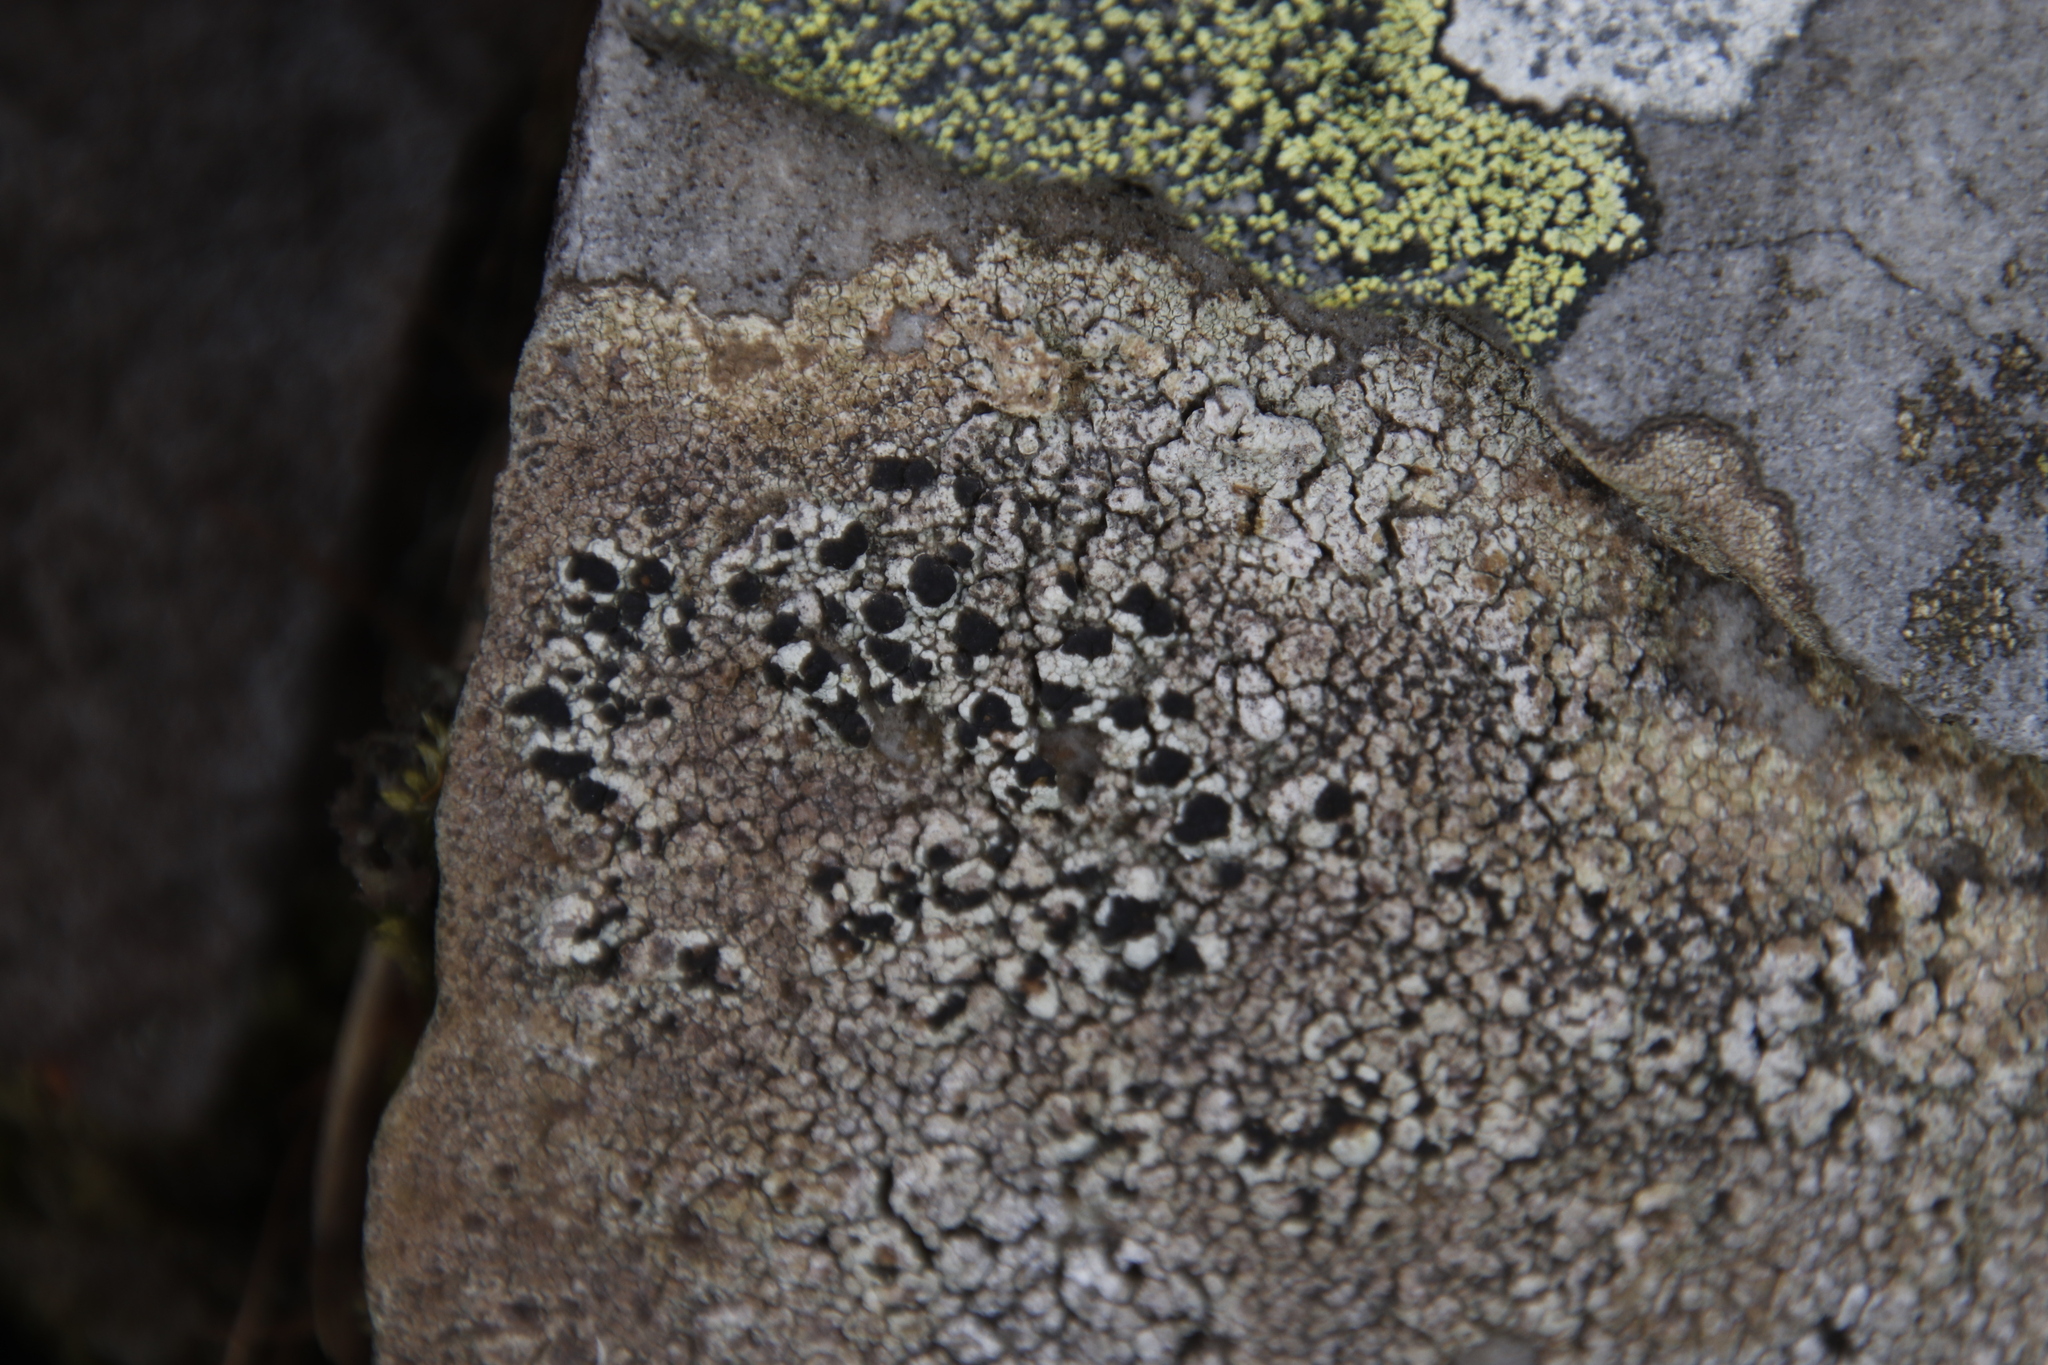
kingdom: Fungi
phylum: Ascomycota
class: Lecanoromycetes
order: Umbilicariales
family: Fuscideaceae
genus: Fuscidea
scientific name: Fuscidea cyathoides
